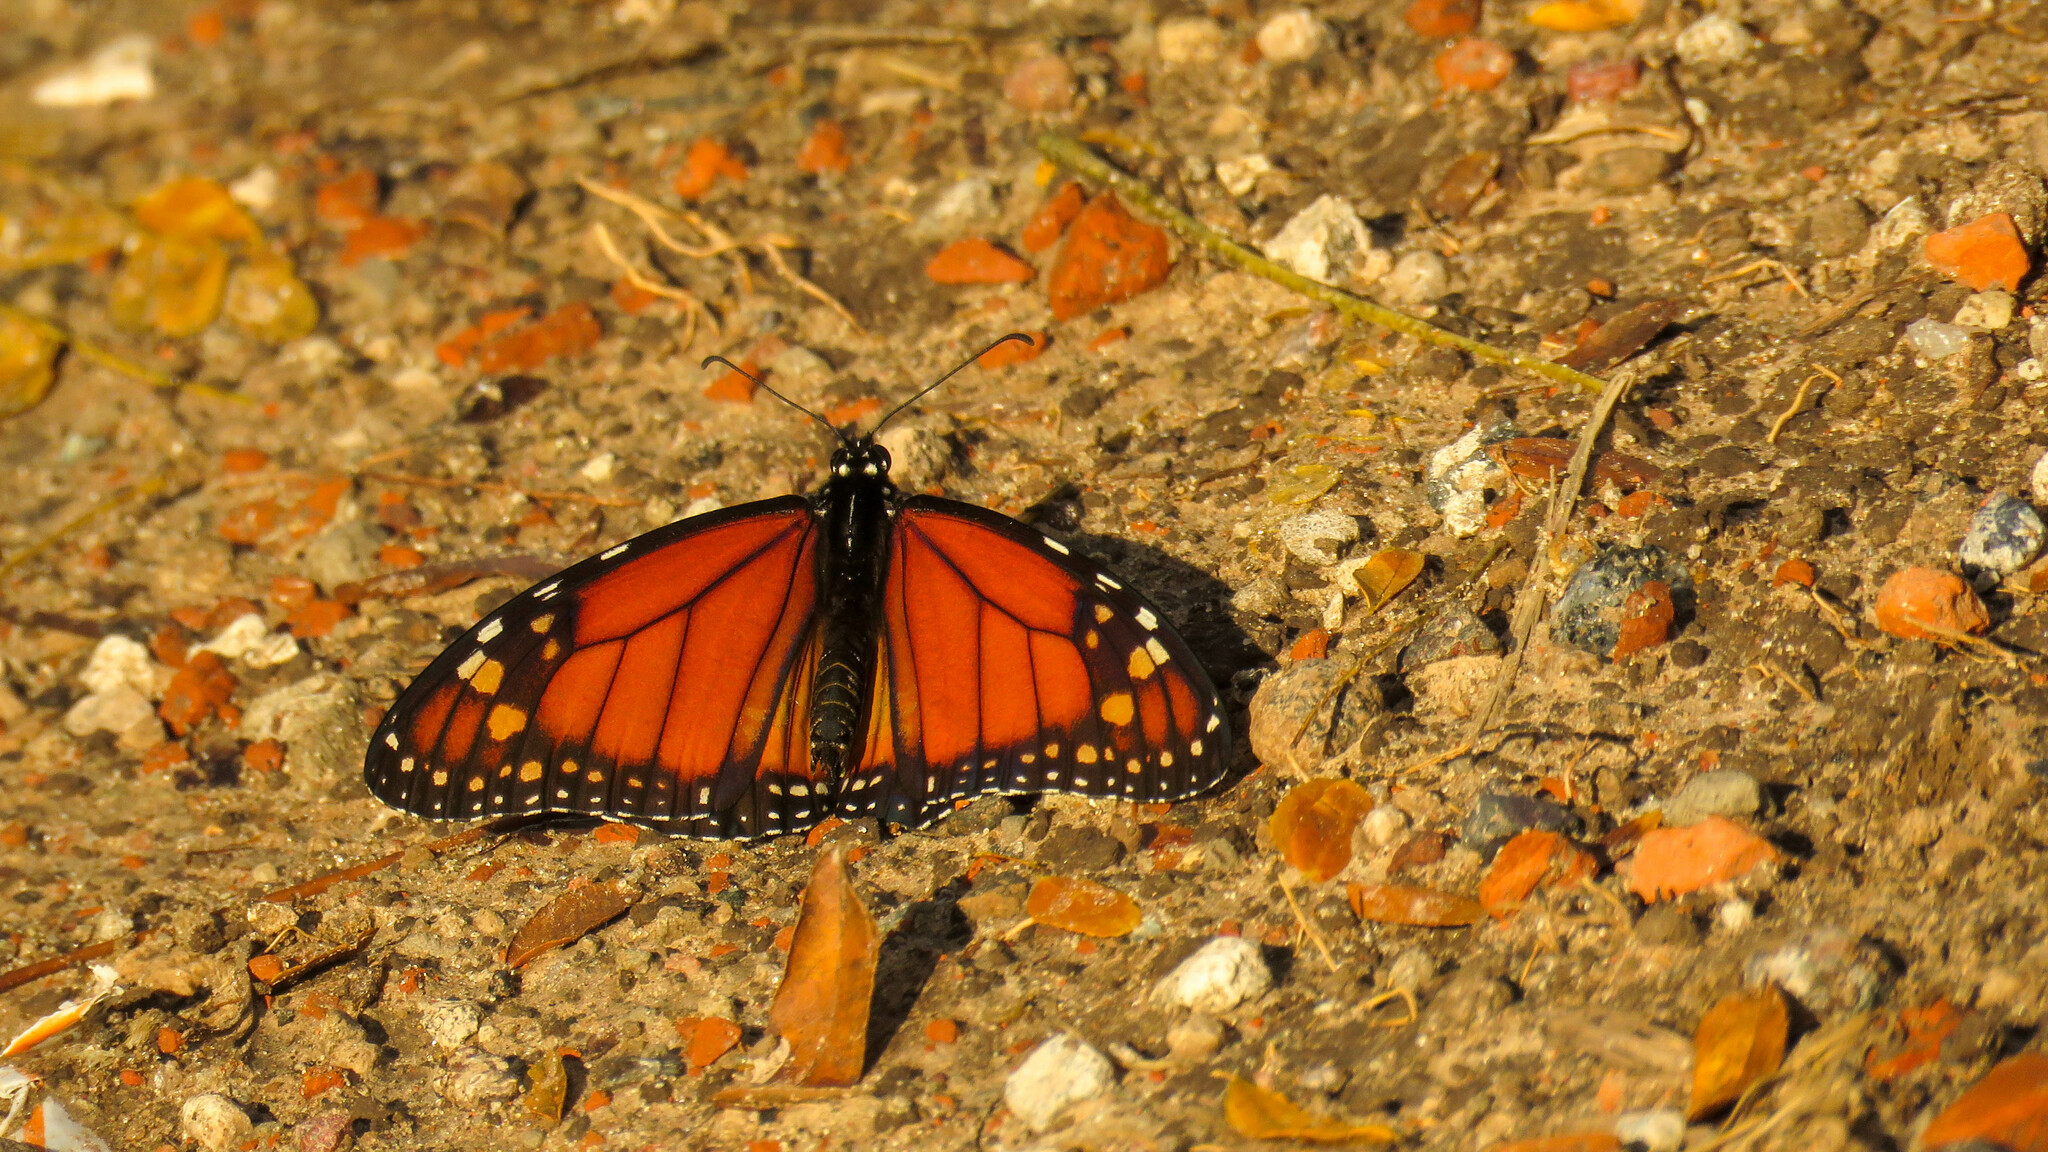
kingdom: Animalia
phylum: Arthropoda
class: Insecta
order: Lepidoptera
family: Nymphalidae
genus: Danaus
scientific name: Danaus erippus
